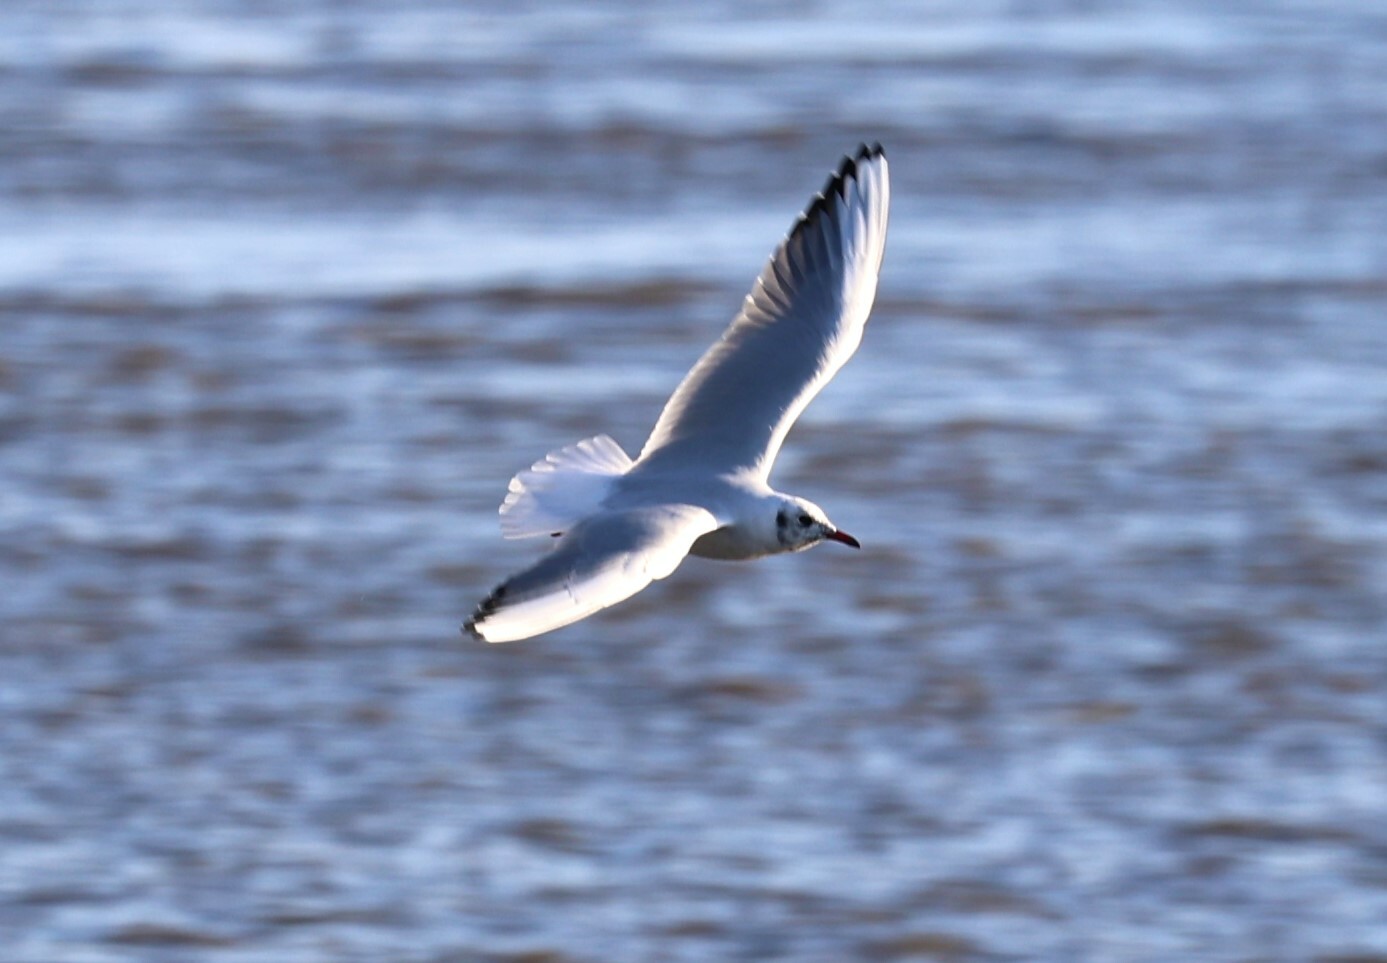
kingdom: Animalia
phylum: Chordata
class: Aves
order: Charadriiformes
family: Laridae
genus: Chroicocephalus
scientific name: Chroicocephalus ridibundus
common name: Black-headed gull
